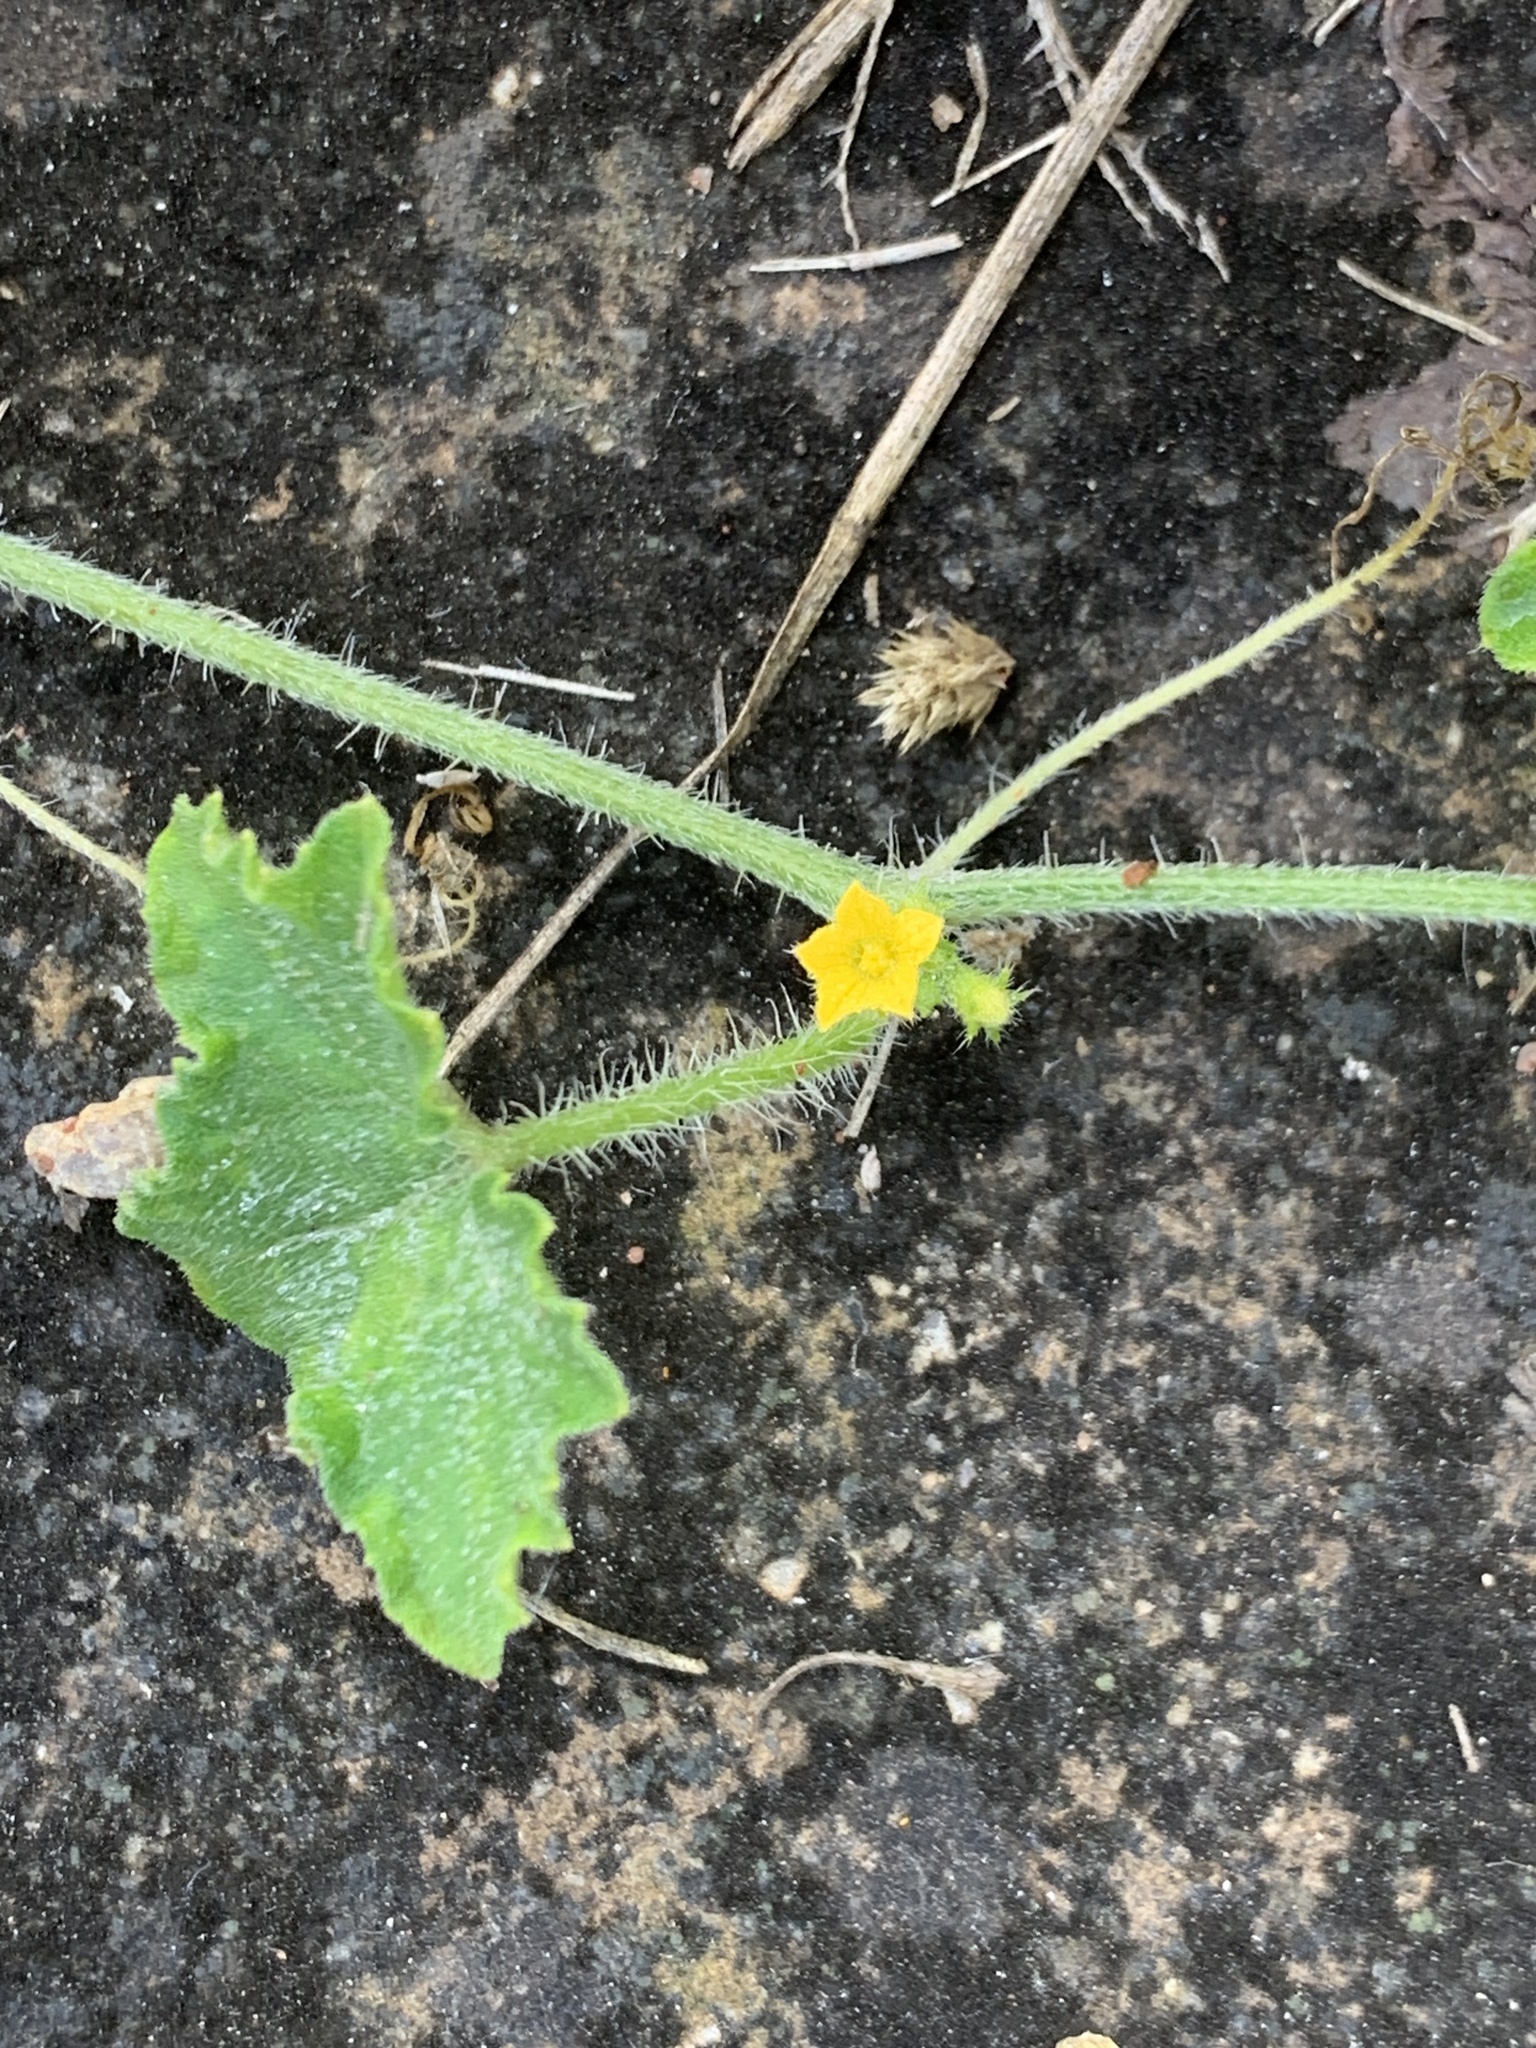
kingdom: Plantae
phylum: Tracheophyta
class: Magnoliopsida
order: Cucurbitales
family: Cucurbitaceae
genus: Cucumis
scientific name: Cucumis maderaspatanus
